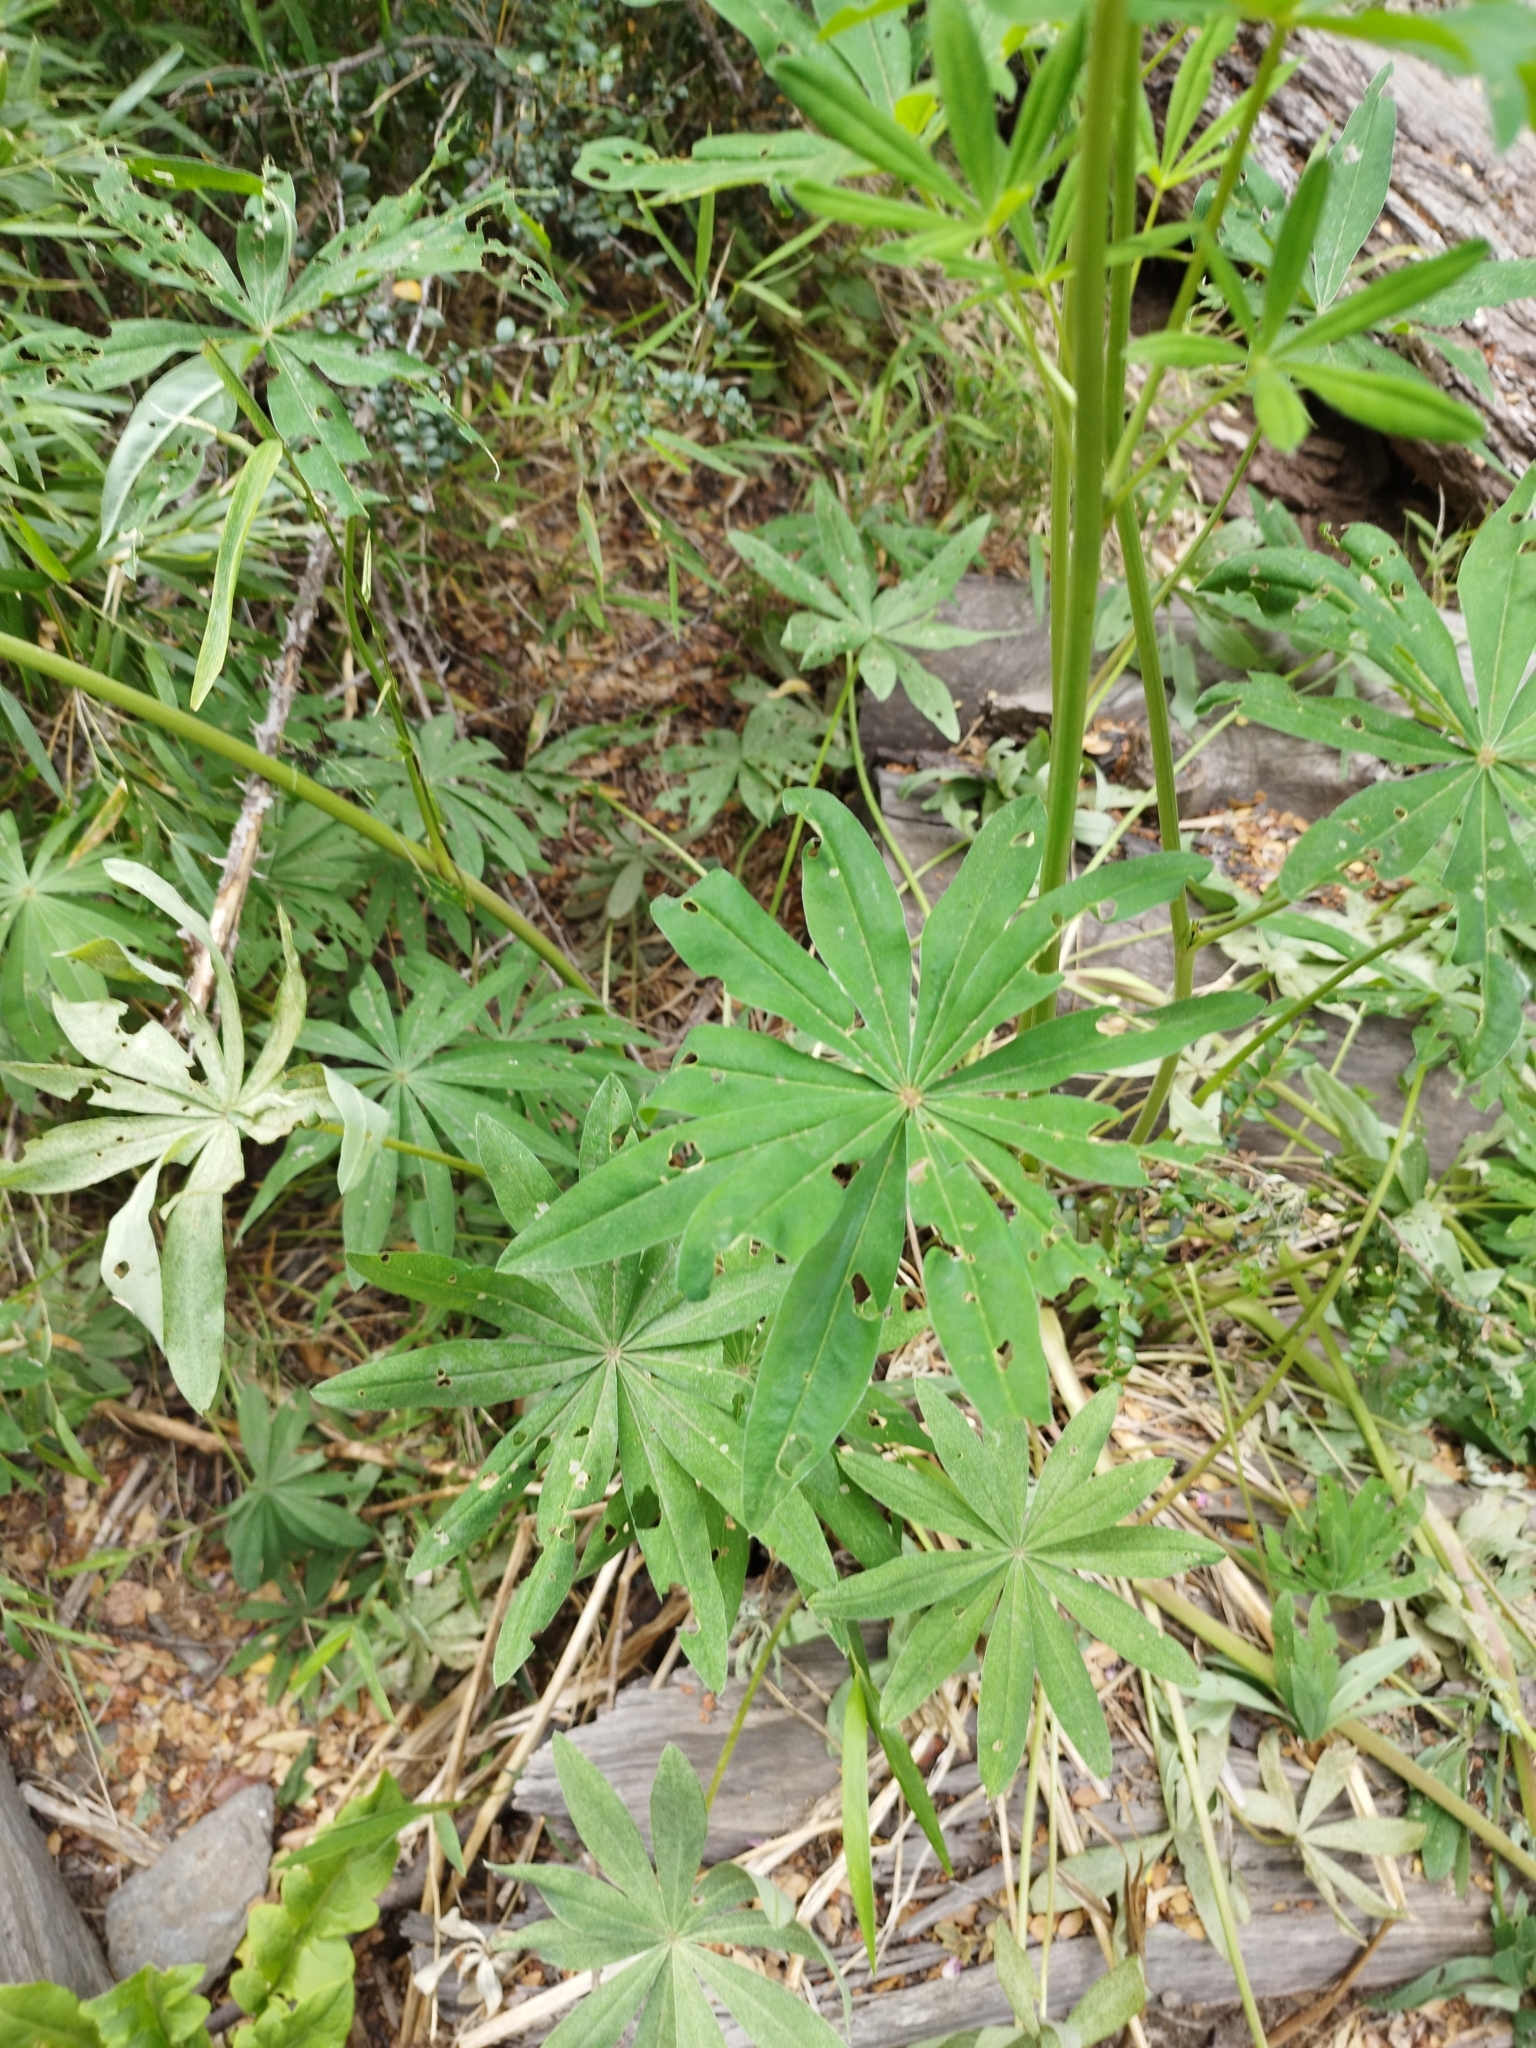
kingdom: Plantae
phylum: Tracheophyta
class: Magnoliopsida
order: Fabales
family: Fabaceae
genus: Lupinus
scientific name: Lupinus polyphyllus
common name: Garden lupin
